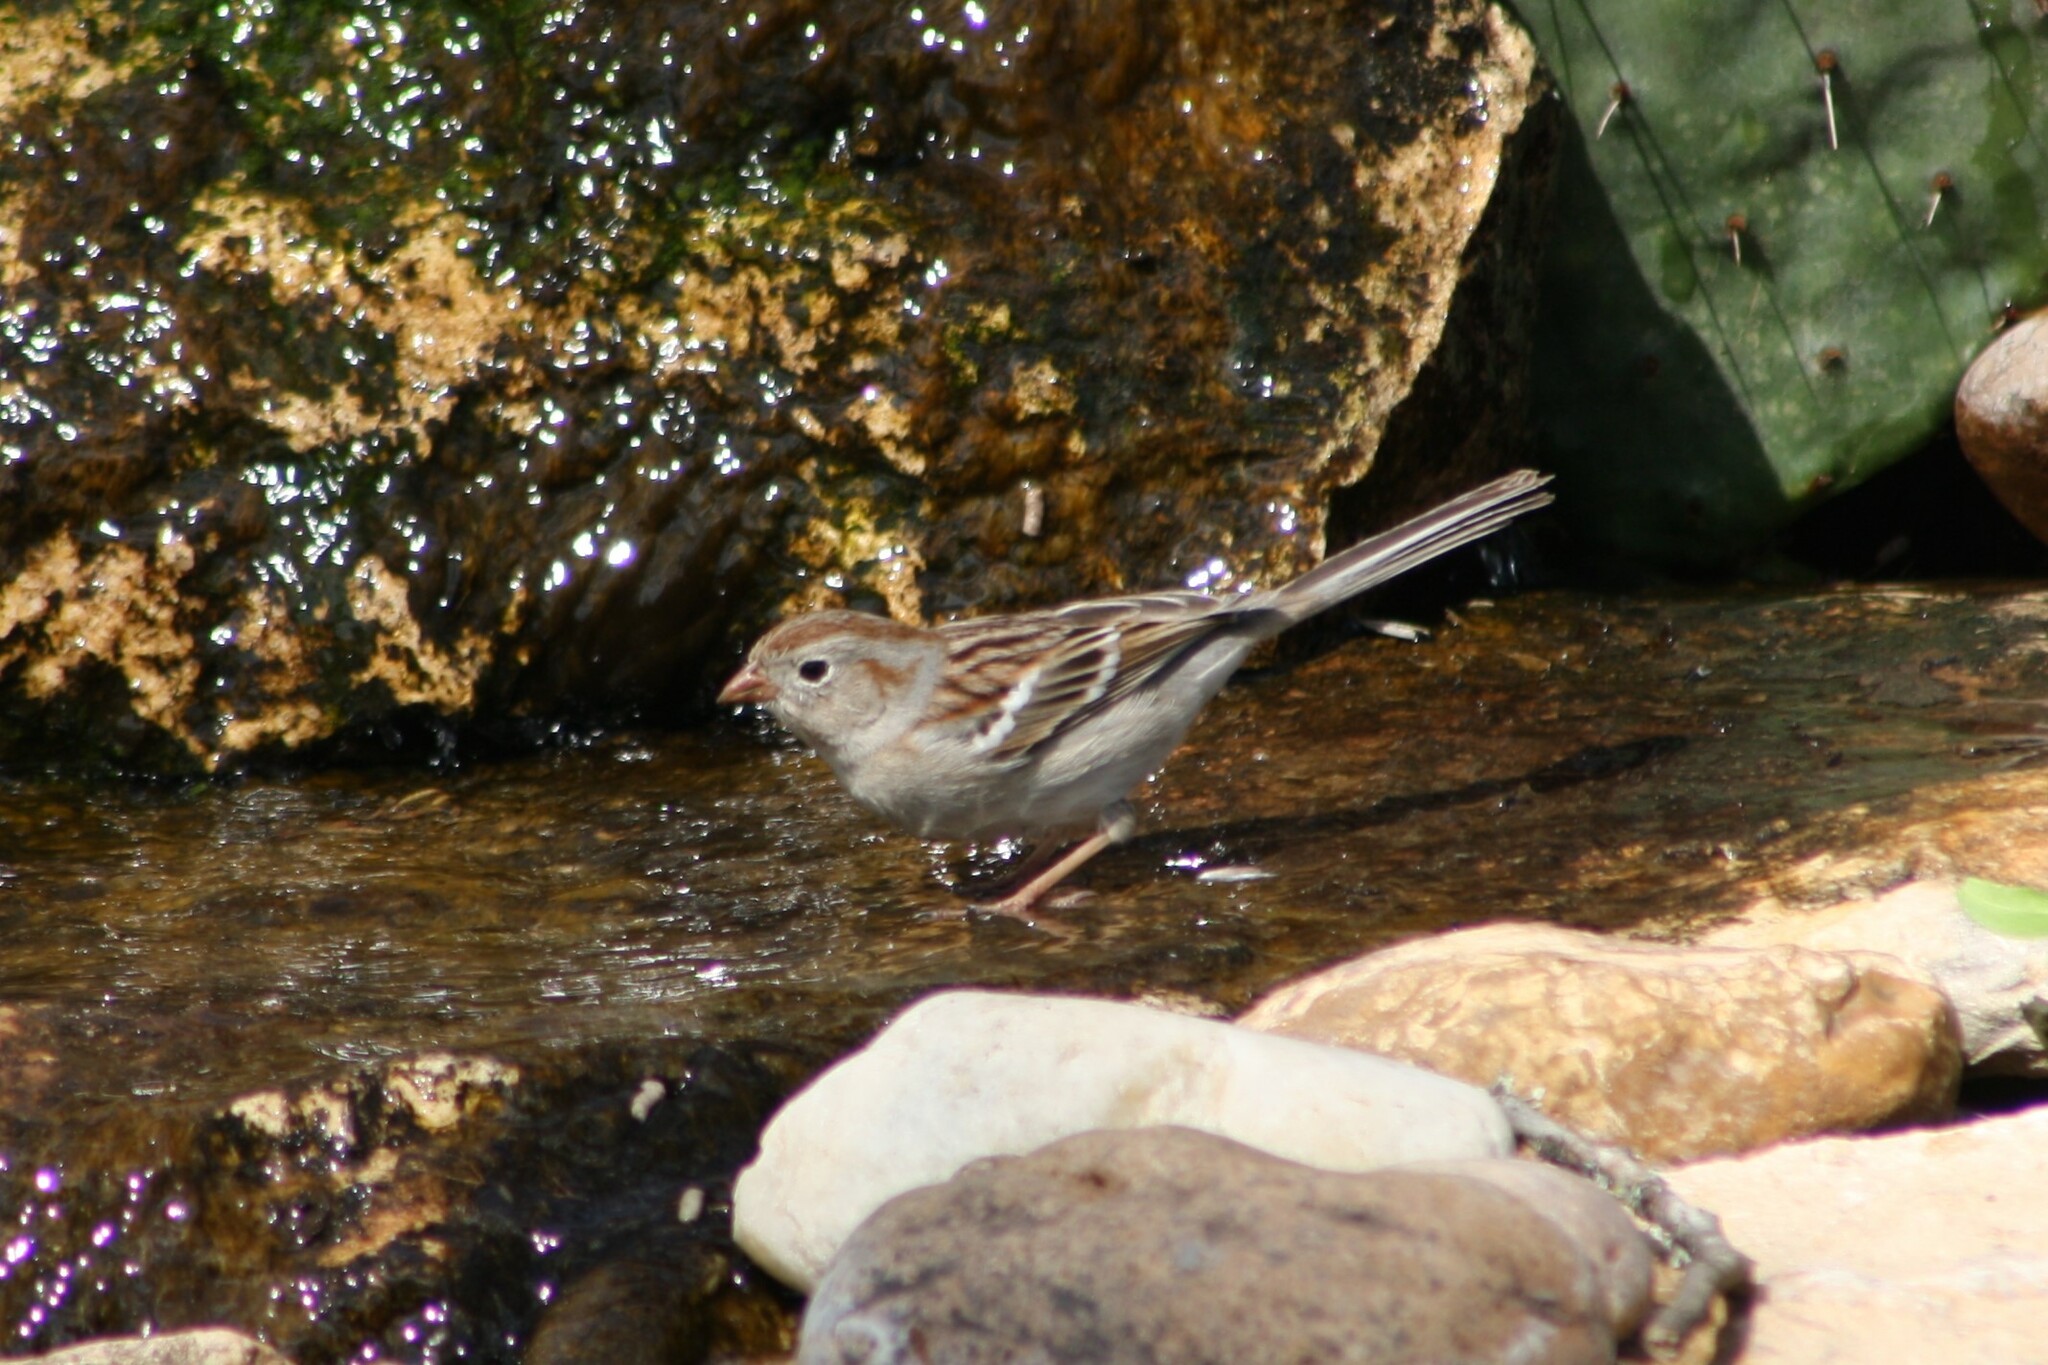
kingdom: Animalia
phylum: Chordata
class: Aves
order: Passeriformes
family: Passerellidae
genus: Spizella
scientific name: Spizella pusilla
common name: Field sparrow
